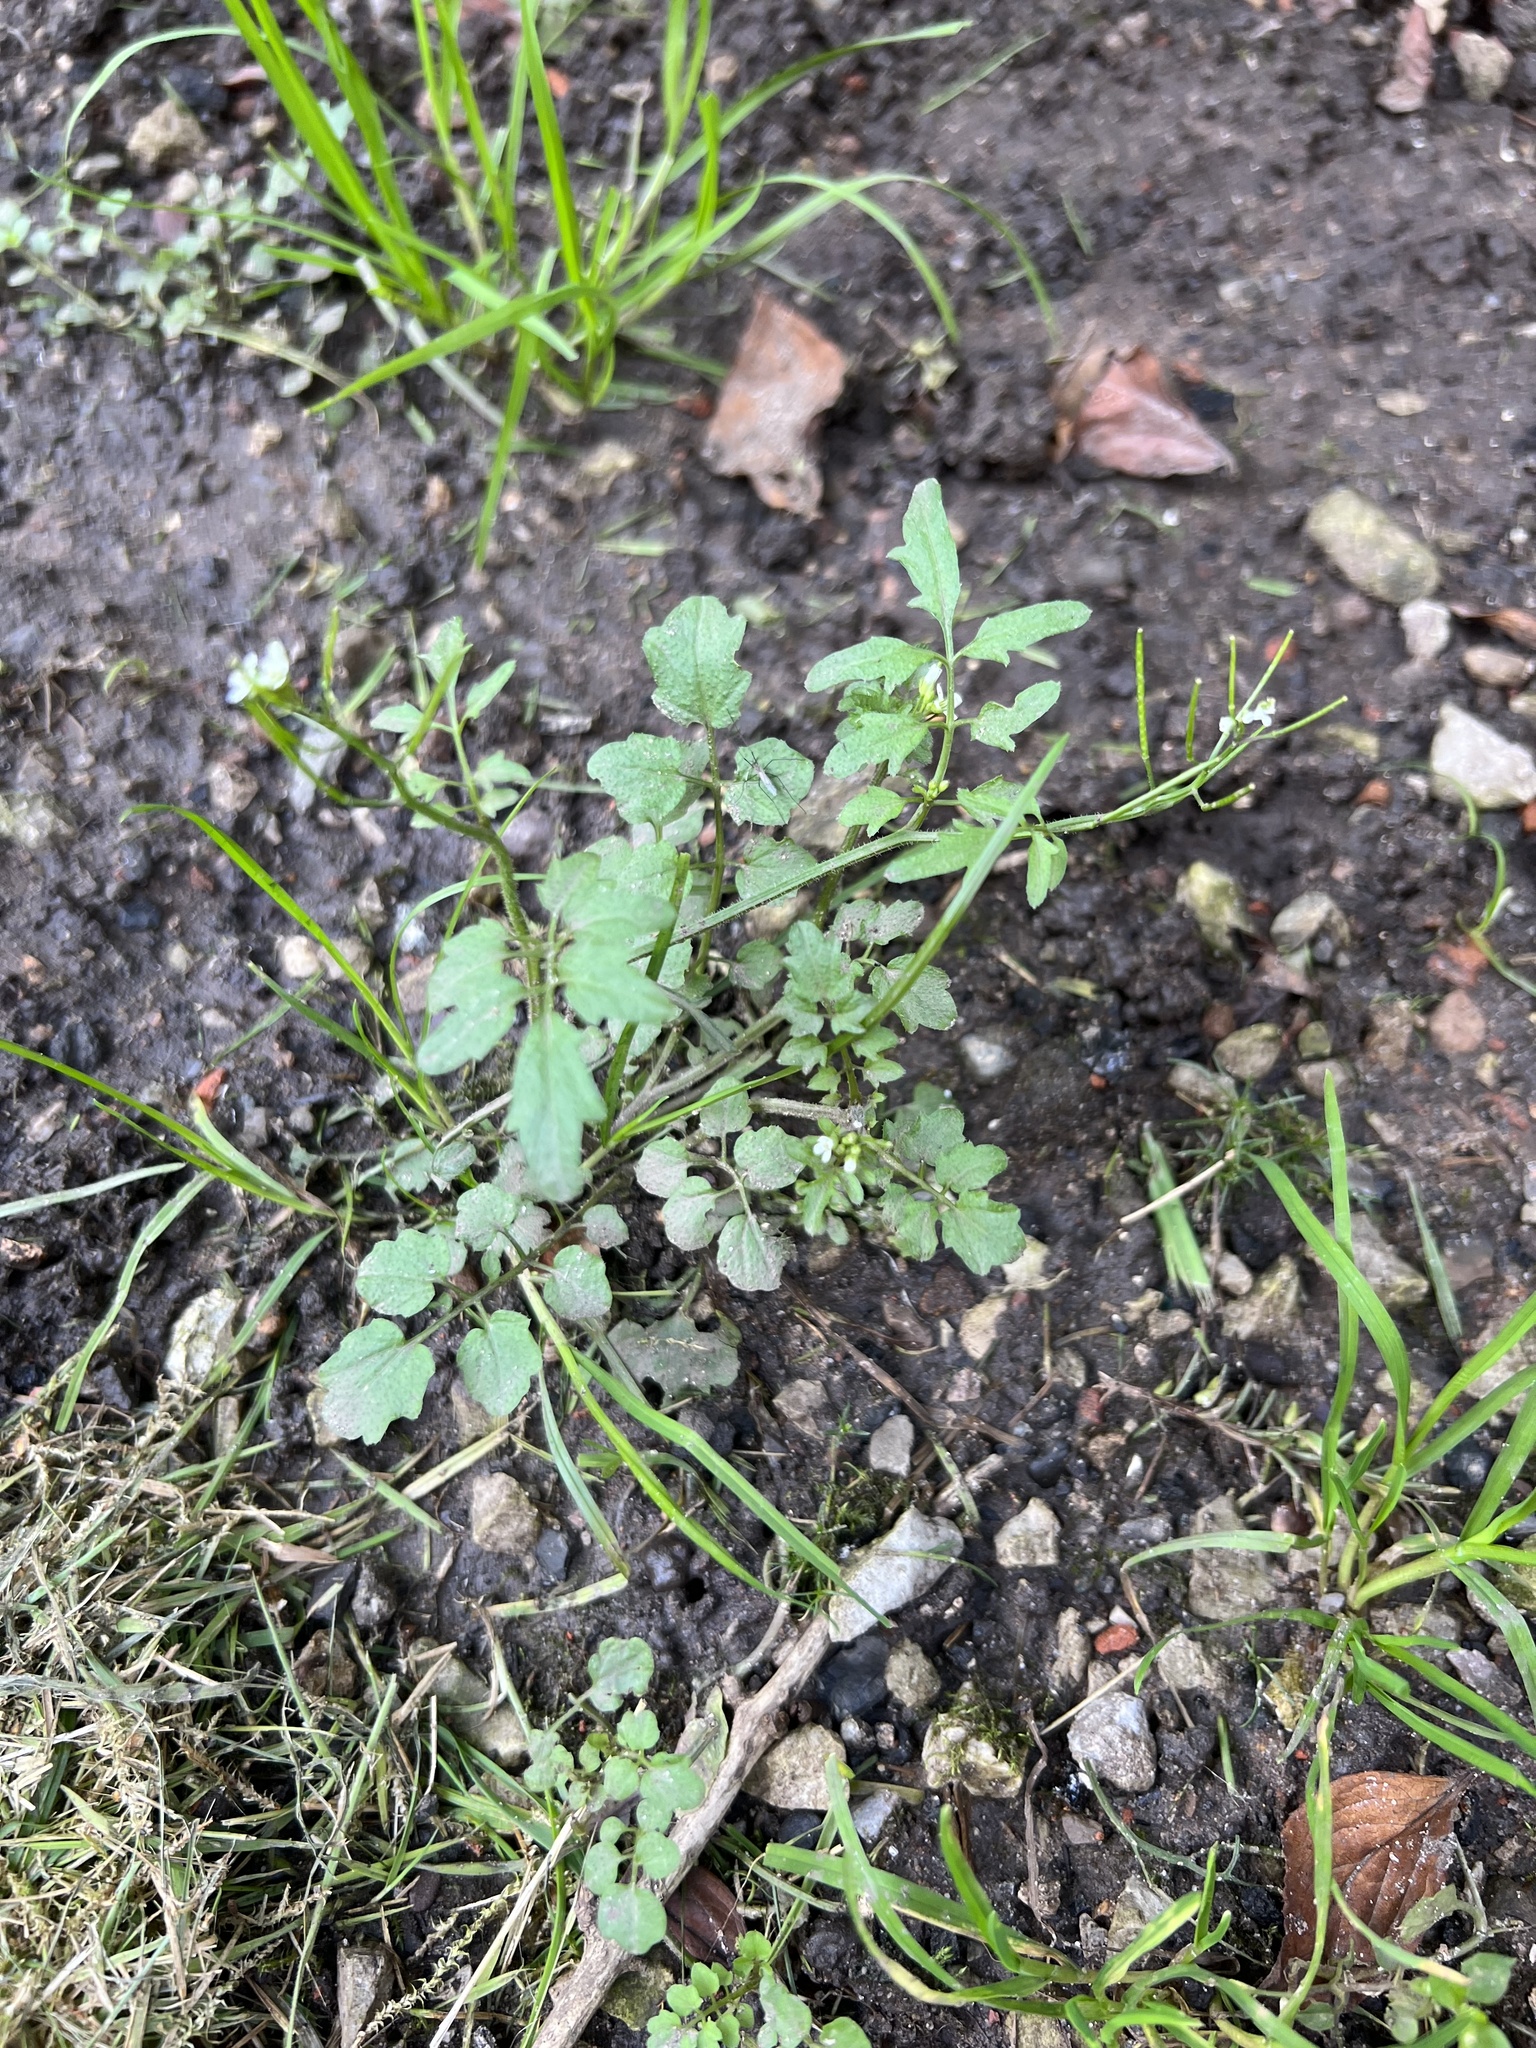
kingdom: Plantae
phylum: Tracheophyta
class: Magnoliopsida
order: Brassicales
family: Brassicaceae
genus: Cardamine
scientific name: Cardamine flexuosa
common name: Woodland bittercress
